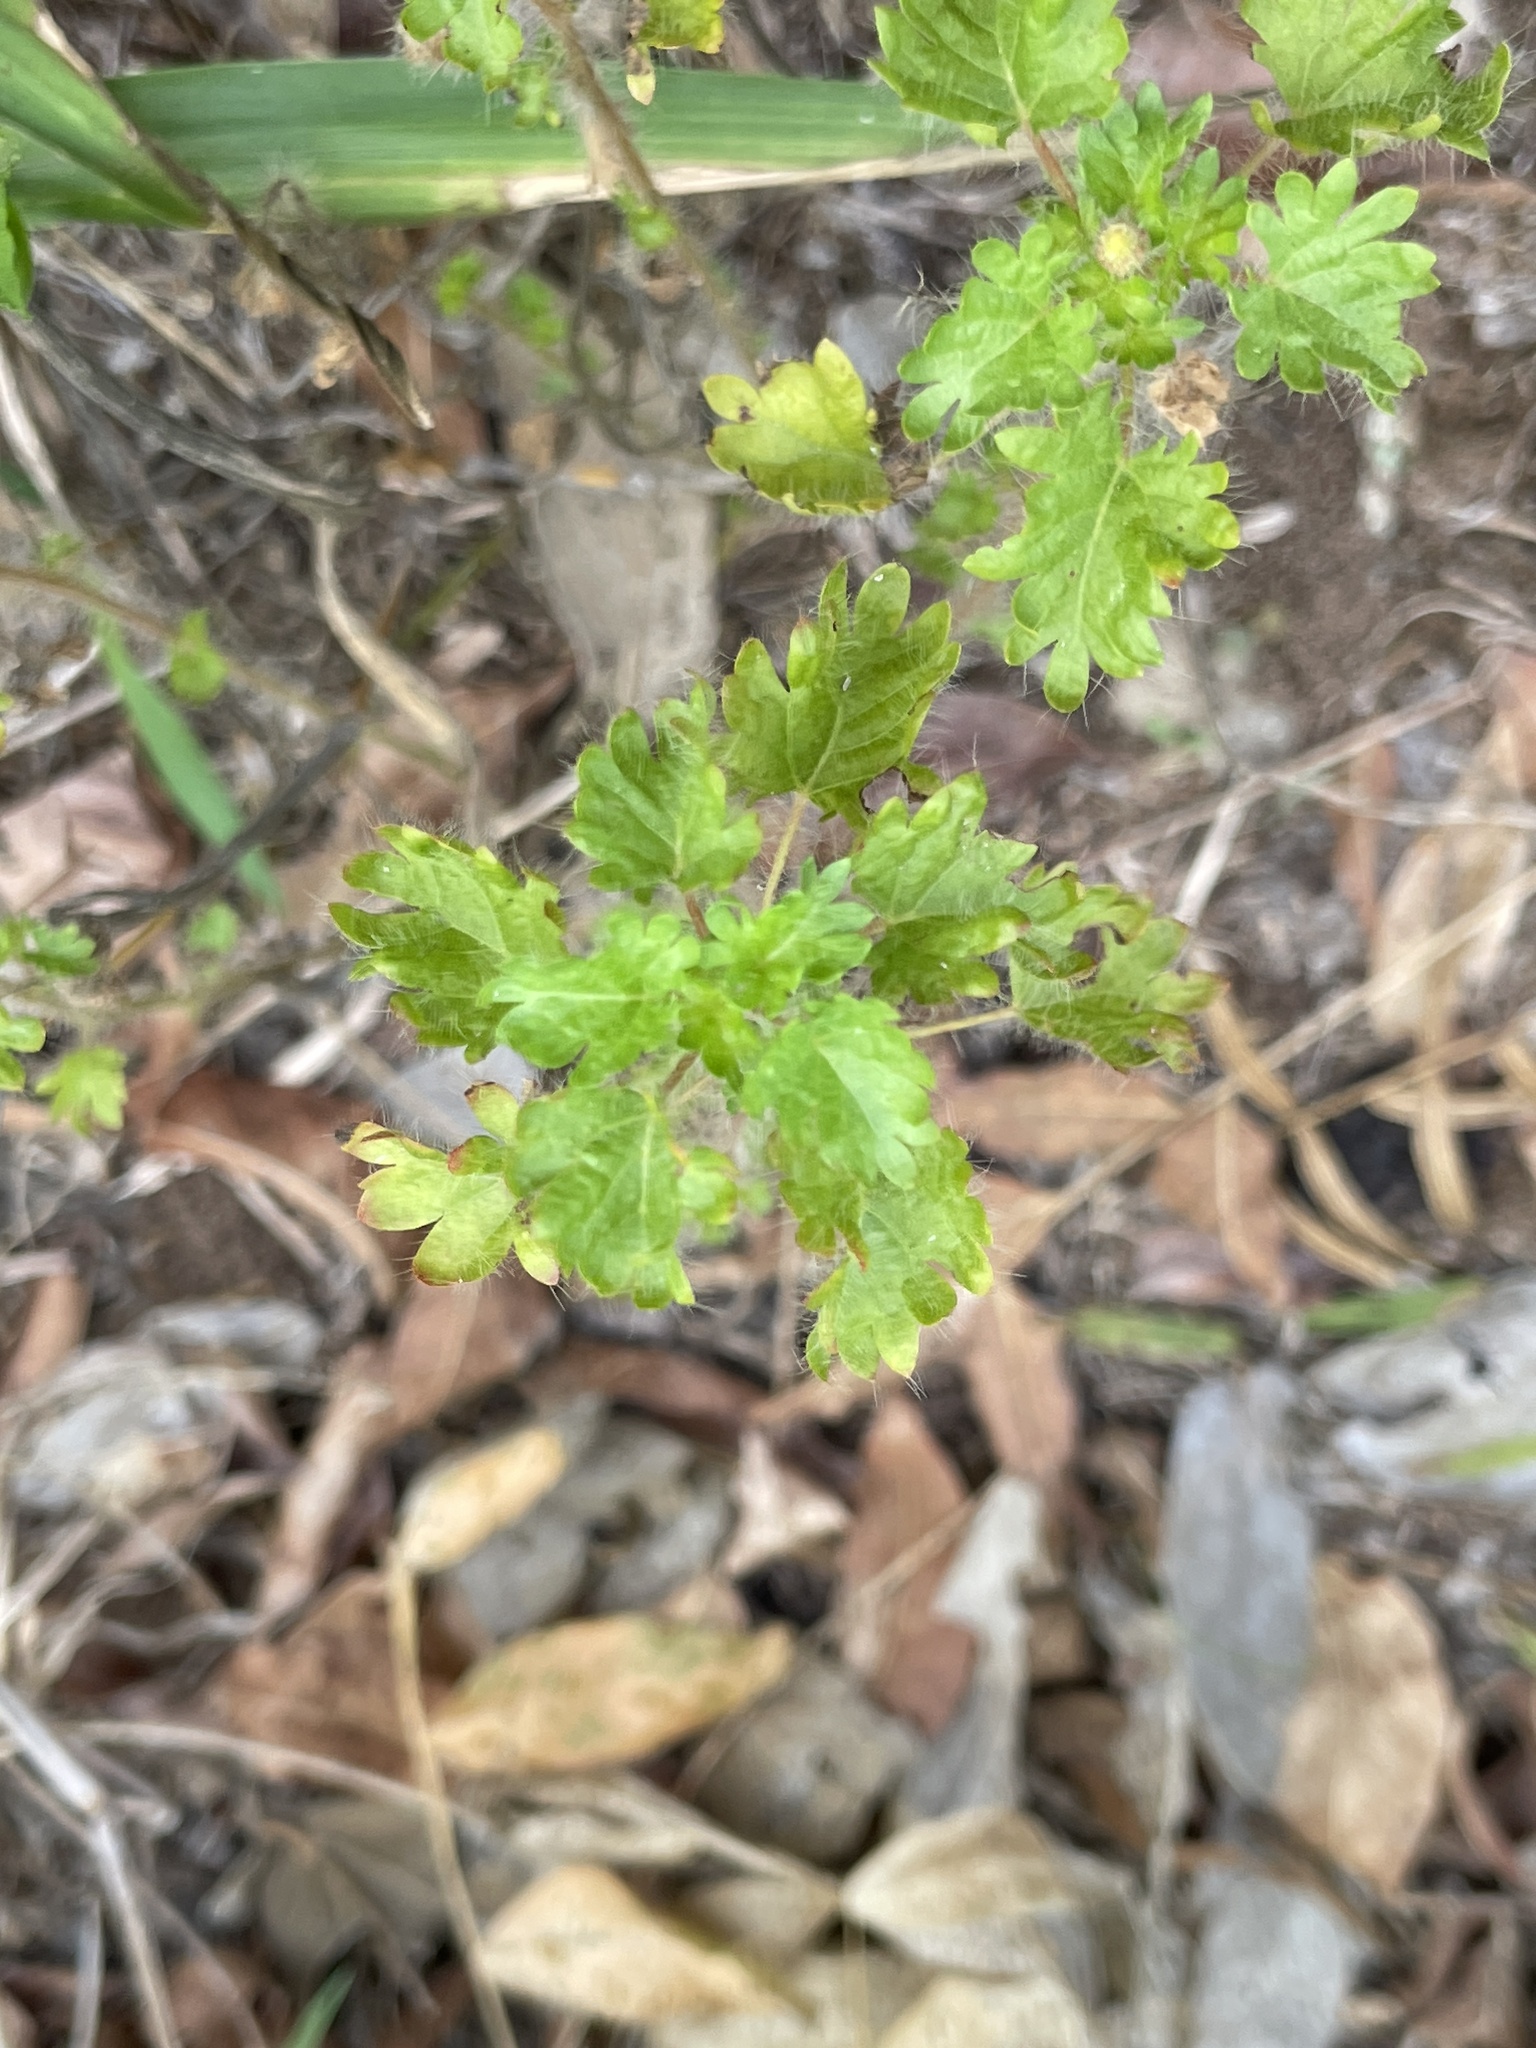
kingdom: Plantae
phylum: Tracheophyta
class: Magnoliopsida
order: Malpighiales
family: Euphorbiaceae
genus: Acalypha
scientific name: Acalypha radians
